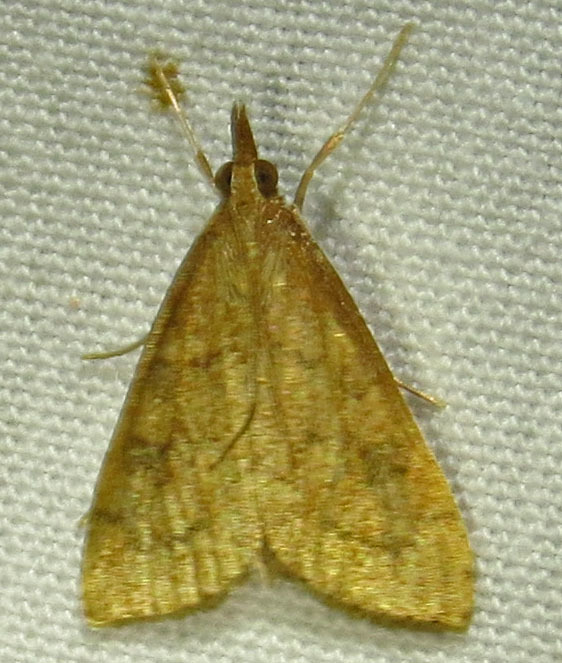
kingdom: Animalia
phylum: Arthropoda
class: Insecta
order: Lepidoptera
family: Crambidae
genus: Udea
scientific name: Udea rubigalis
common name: Celery leaftier moth
